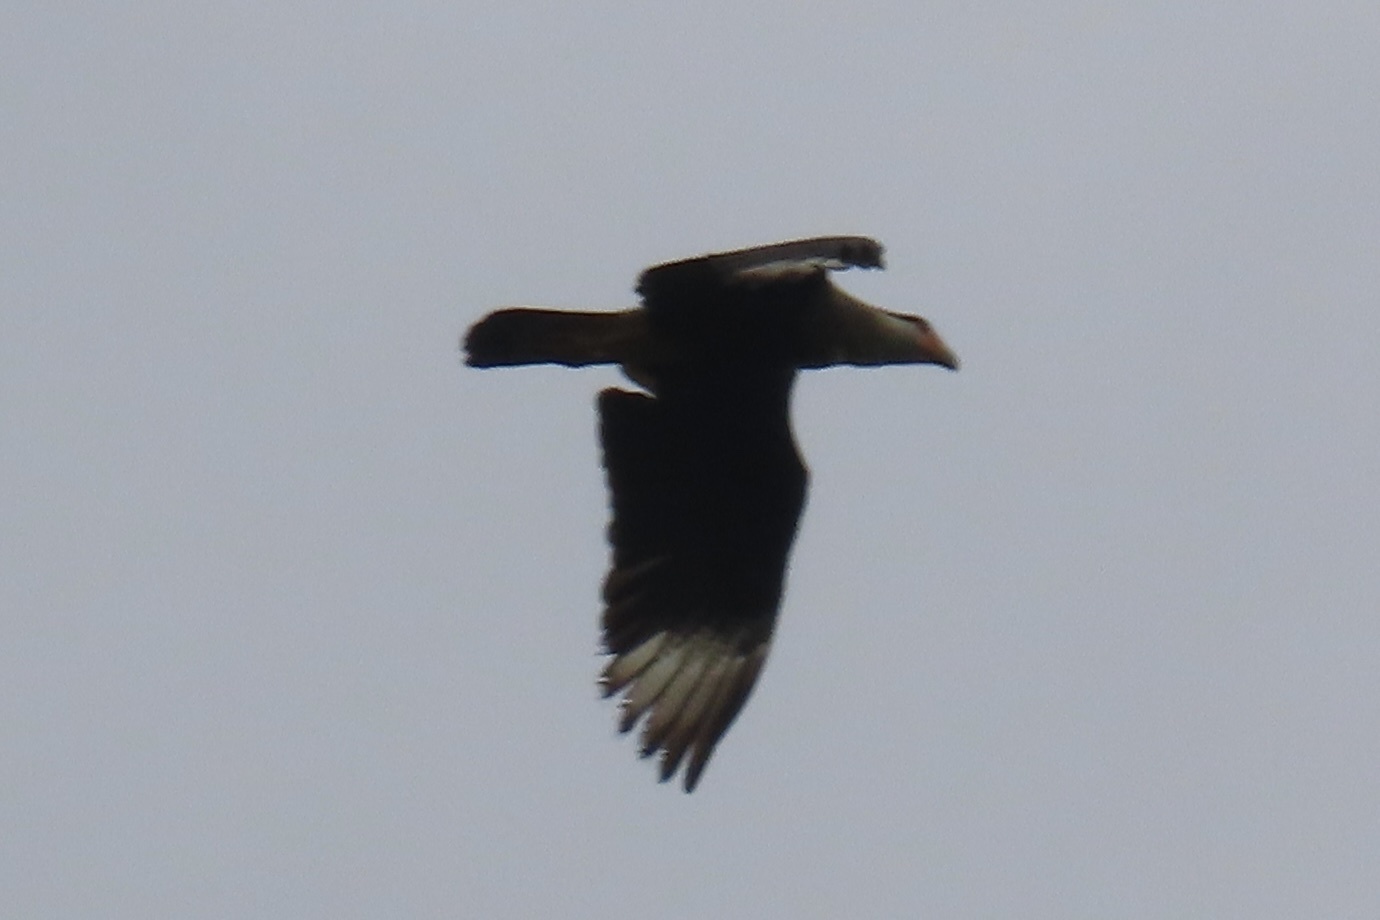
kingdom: Animalia
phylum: Chordata
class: Aves
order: Falconiformes
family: Falconidae
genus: Caracara
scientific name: Caracara plancus
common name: Southern caracara
